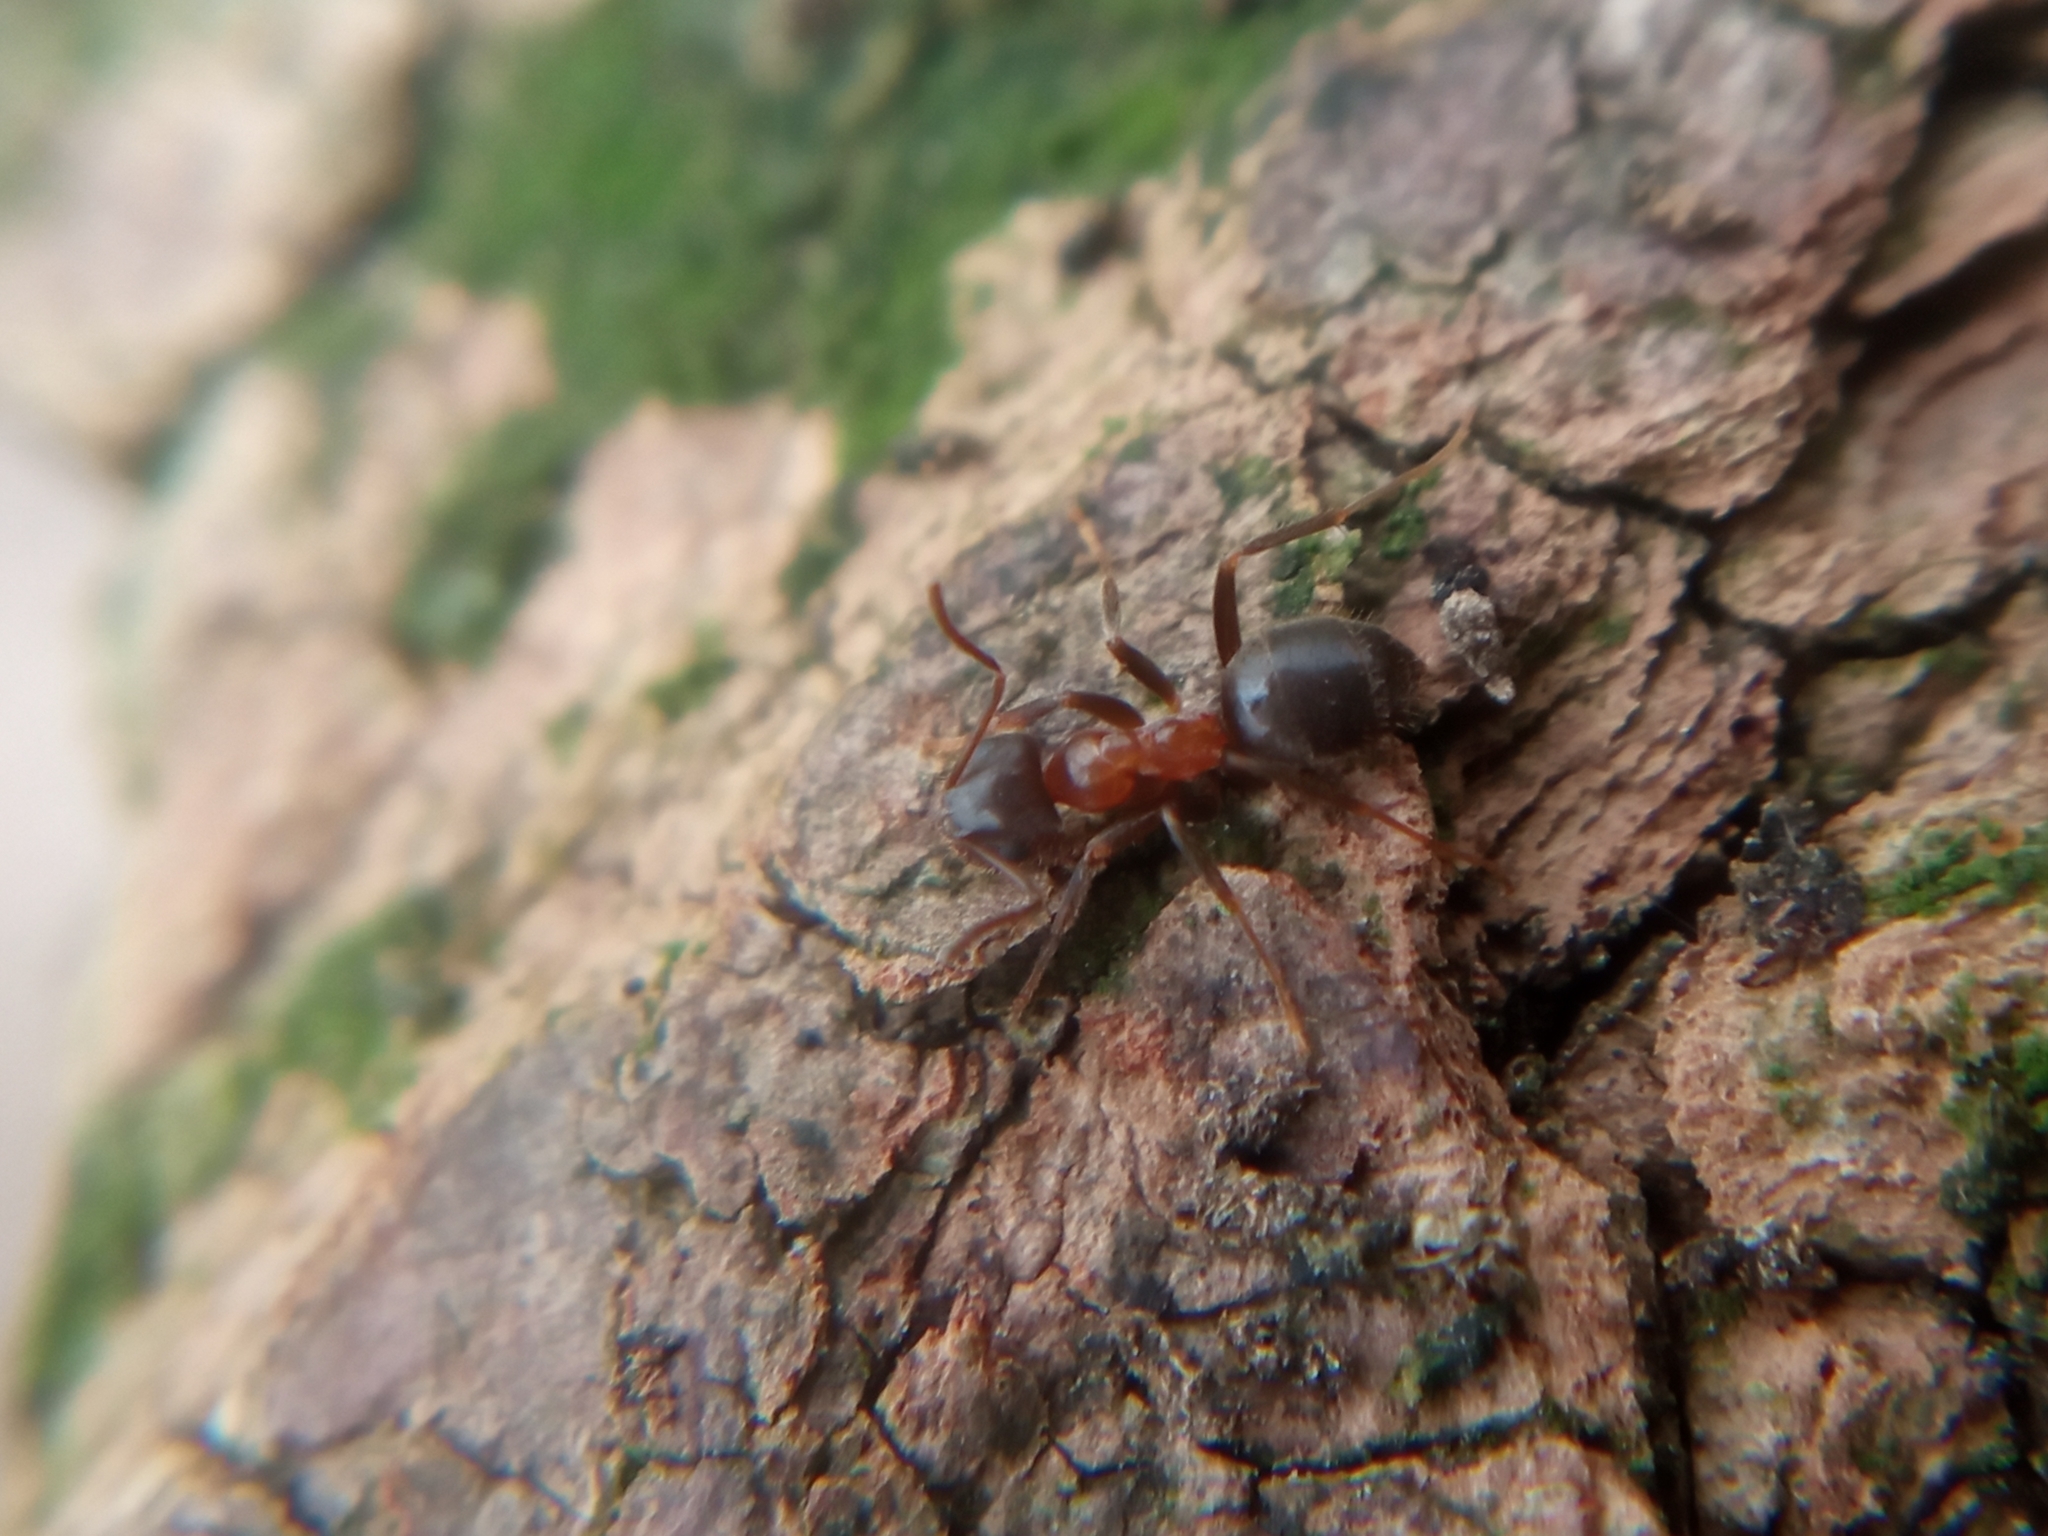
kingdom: Animalia
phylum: Arthropoda
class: Insecta
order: Hymenoptera
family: Formicidae
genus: Lasius
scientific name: Lasius emarginatus
